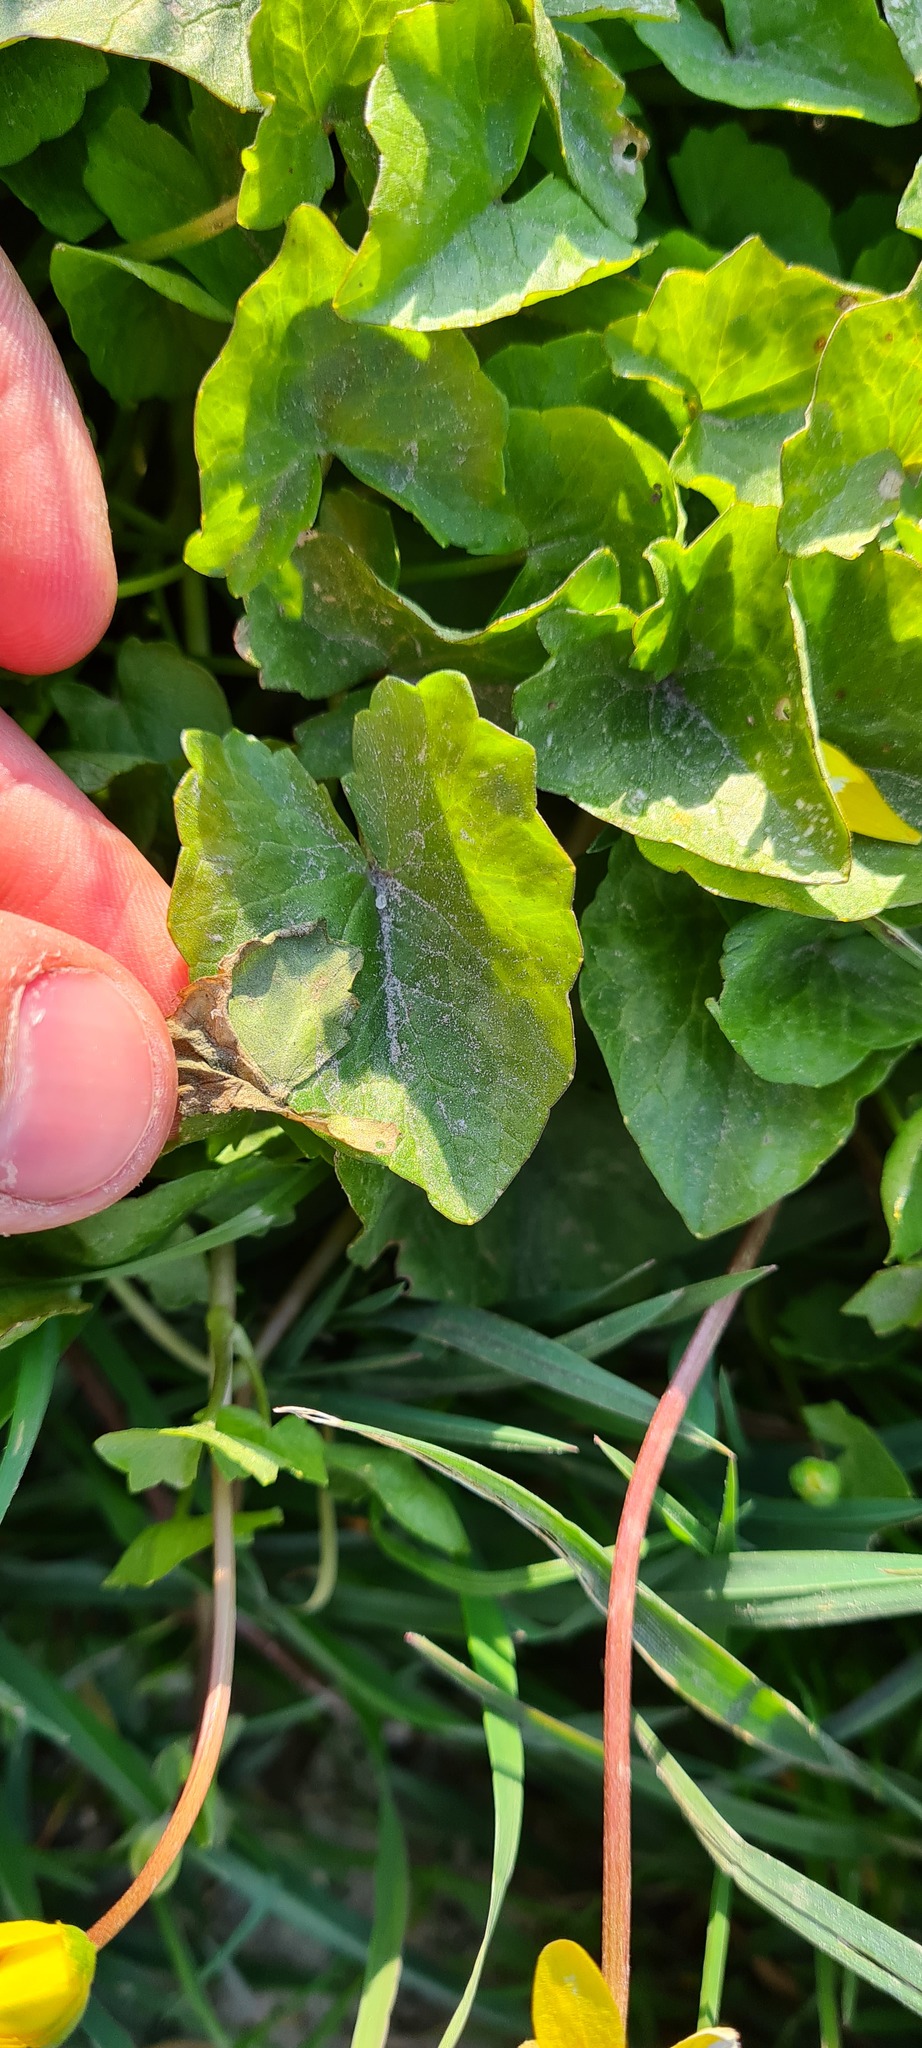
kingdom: Plantae
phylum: Tracheophyta
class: Magnoliopsida
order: Ranunculales
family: Ranunculaceae
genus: Ficaria
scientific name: Ficaria verna
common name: Lesser celandine
